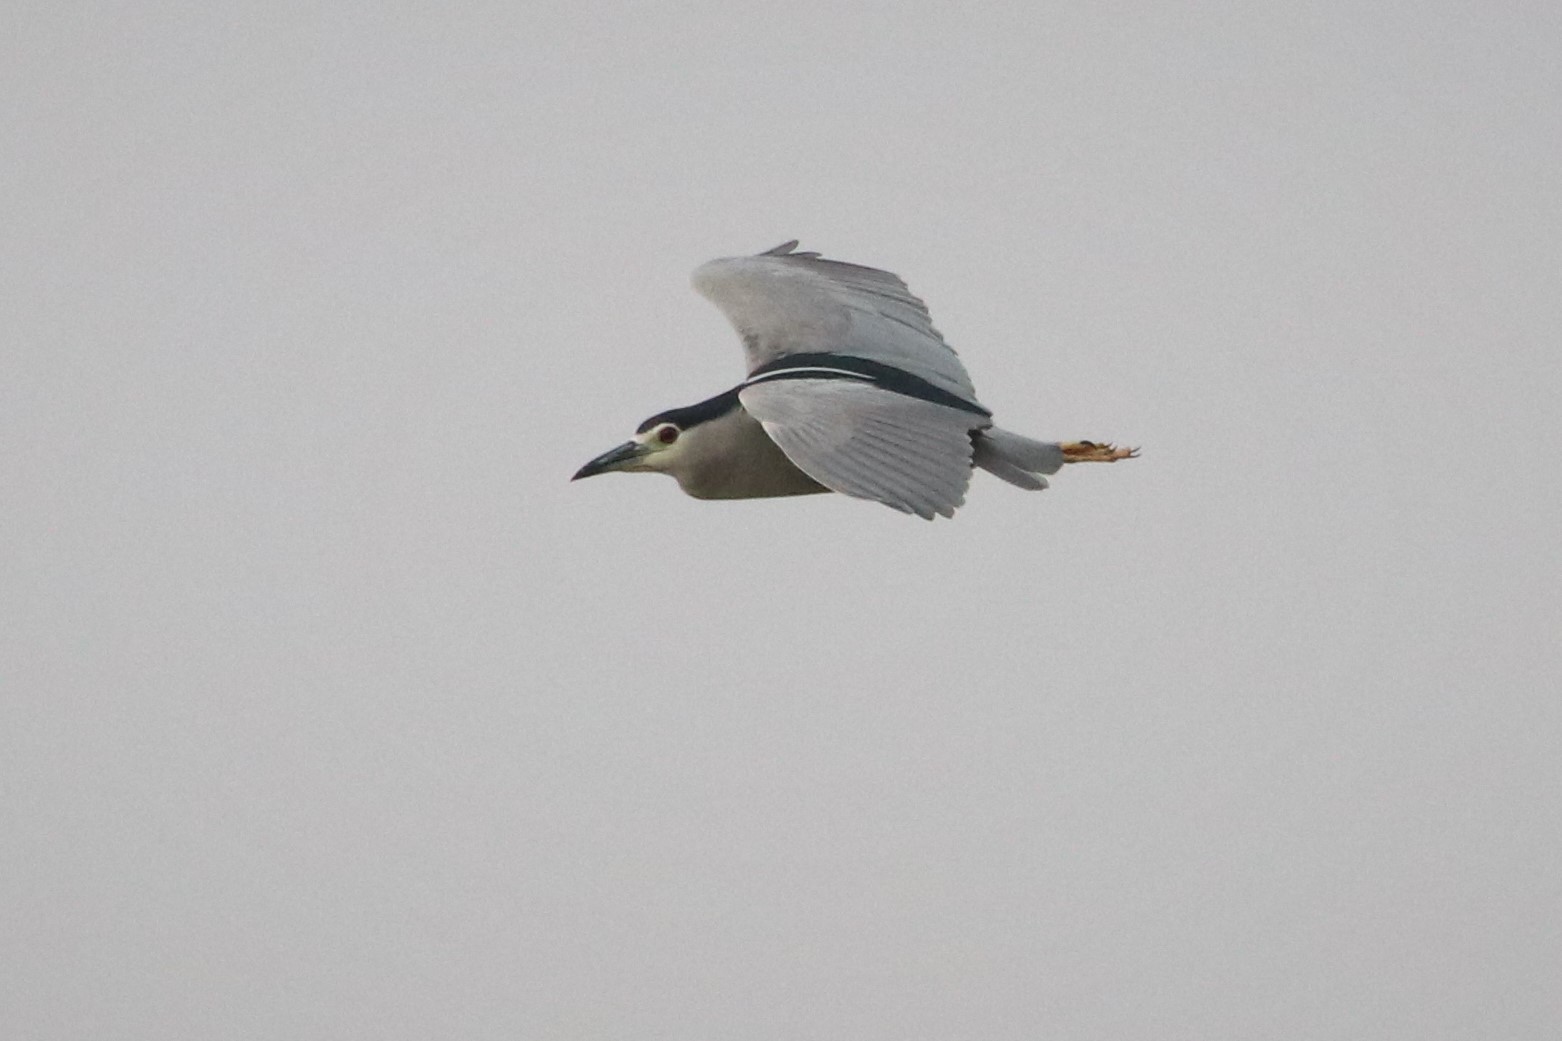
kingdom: Animalia
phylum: Chordata
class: Aves
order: Pelecaniformes
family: Ardeidae
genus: Nycticorax
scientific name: Nycticorax nycticorax
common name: Black-crowned night heron
